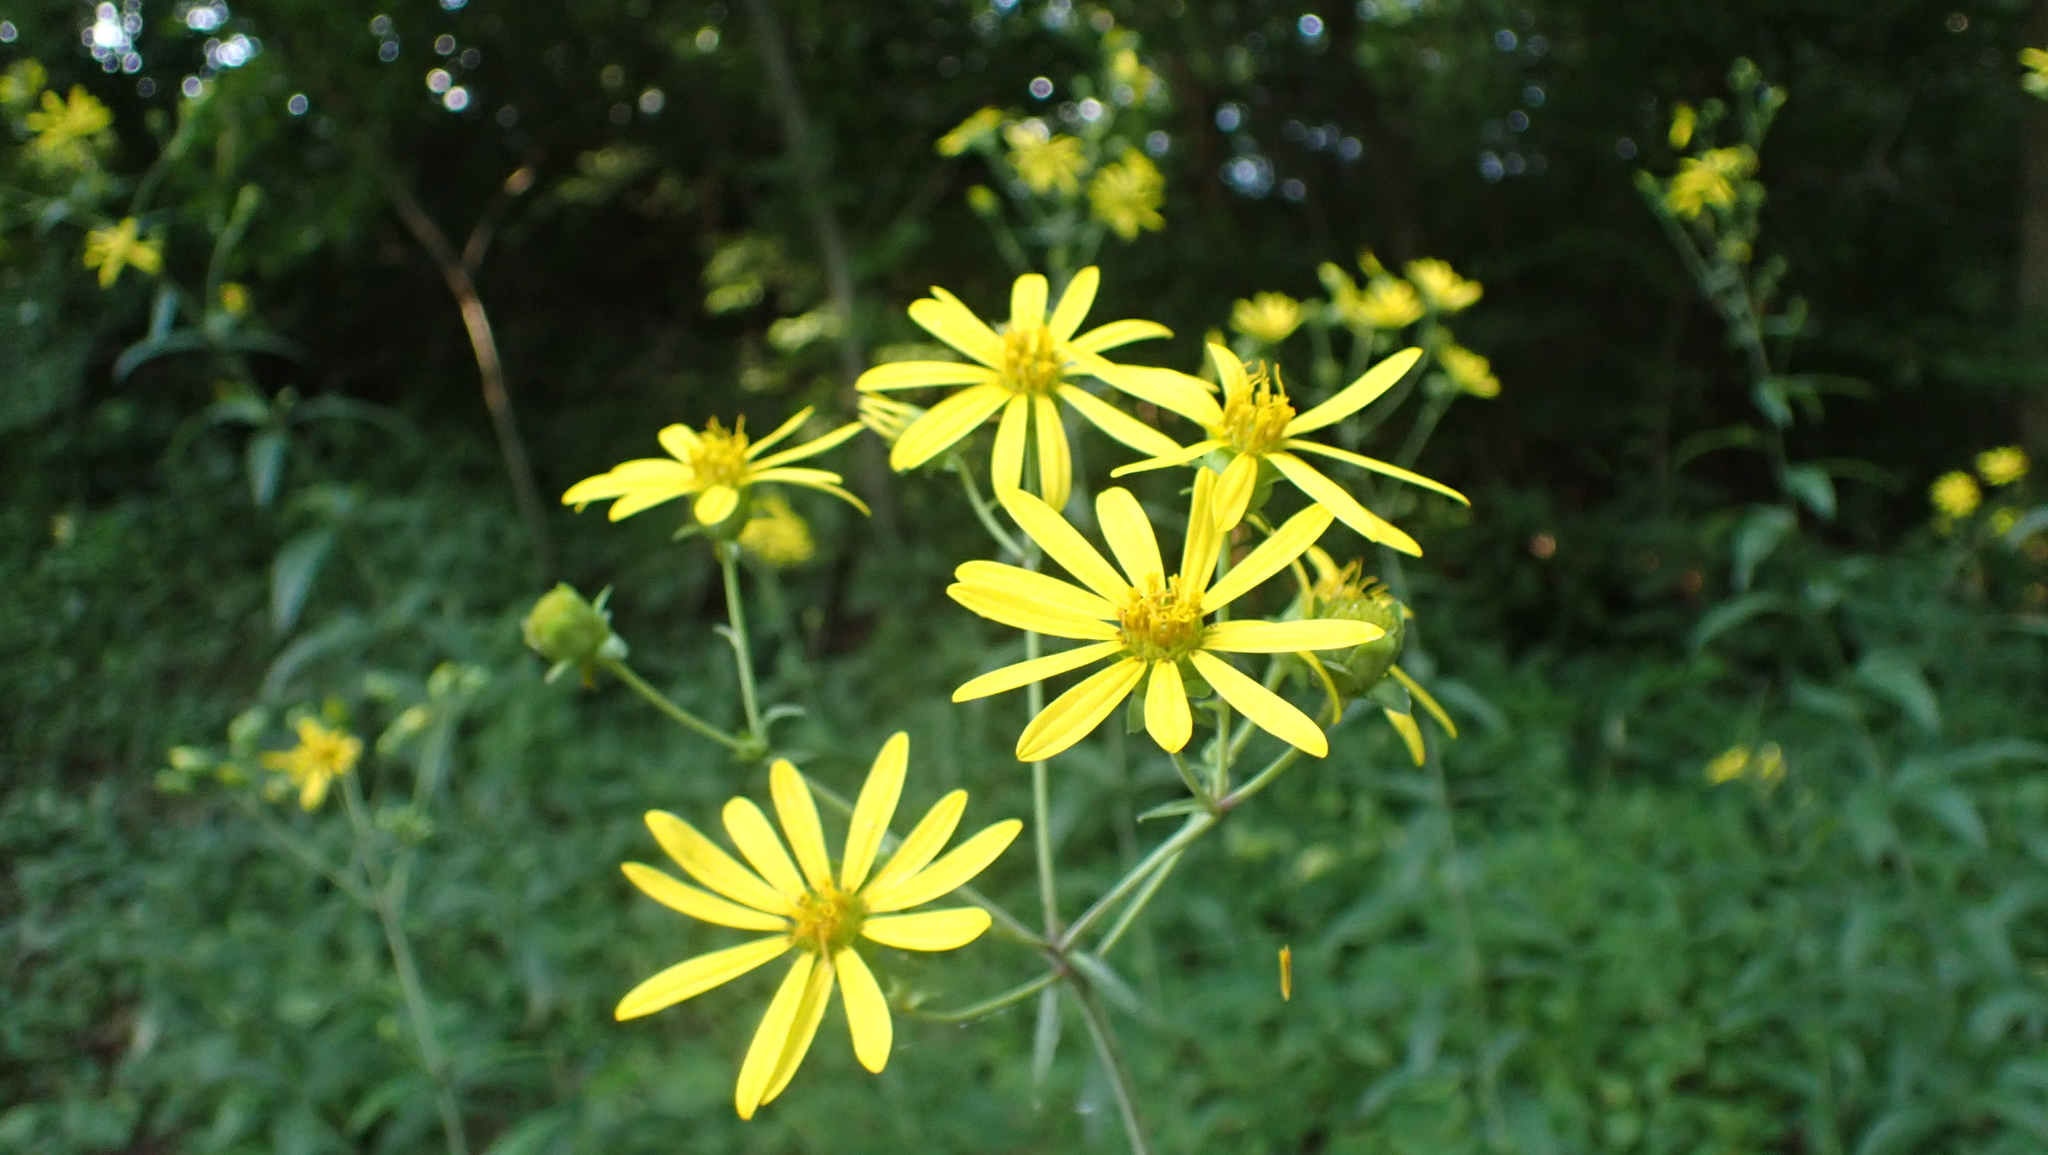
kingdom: Plantae
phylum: Tracheophyta
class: Magnoliopsida
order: Asterales
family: Asteraceae
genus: Silphium
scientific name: Silphium asteriscus
